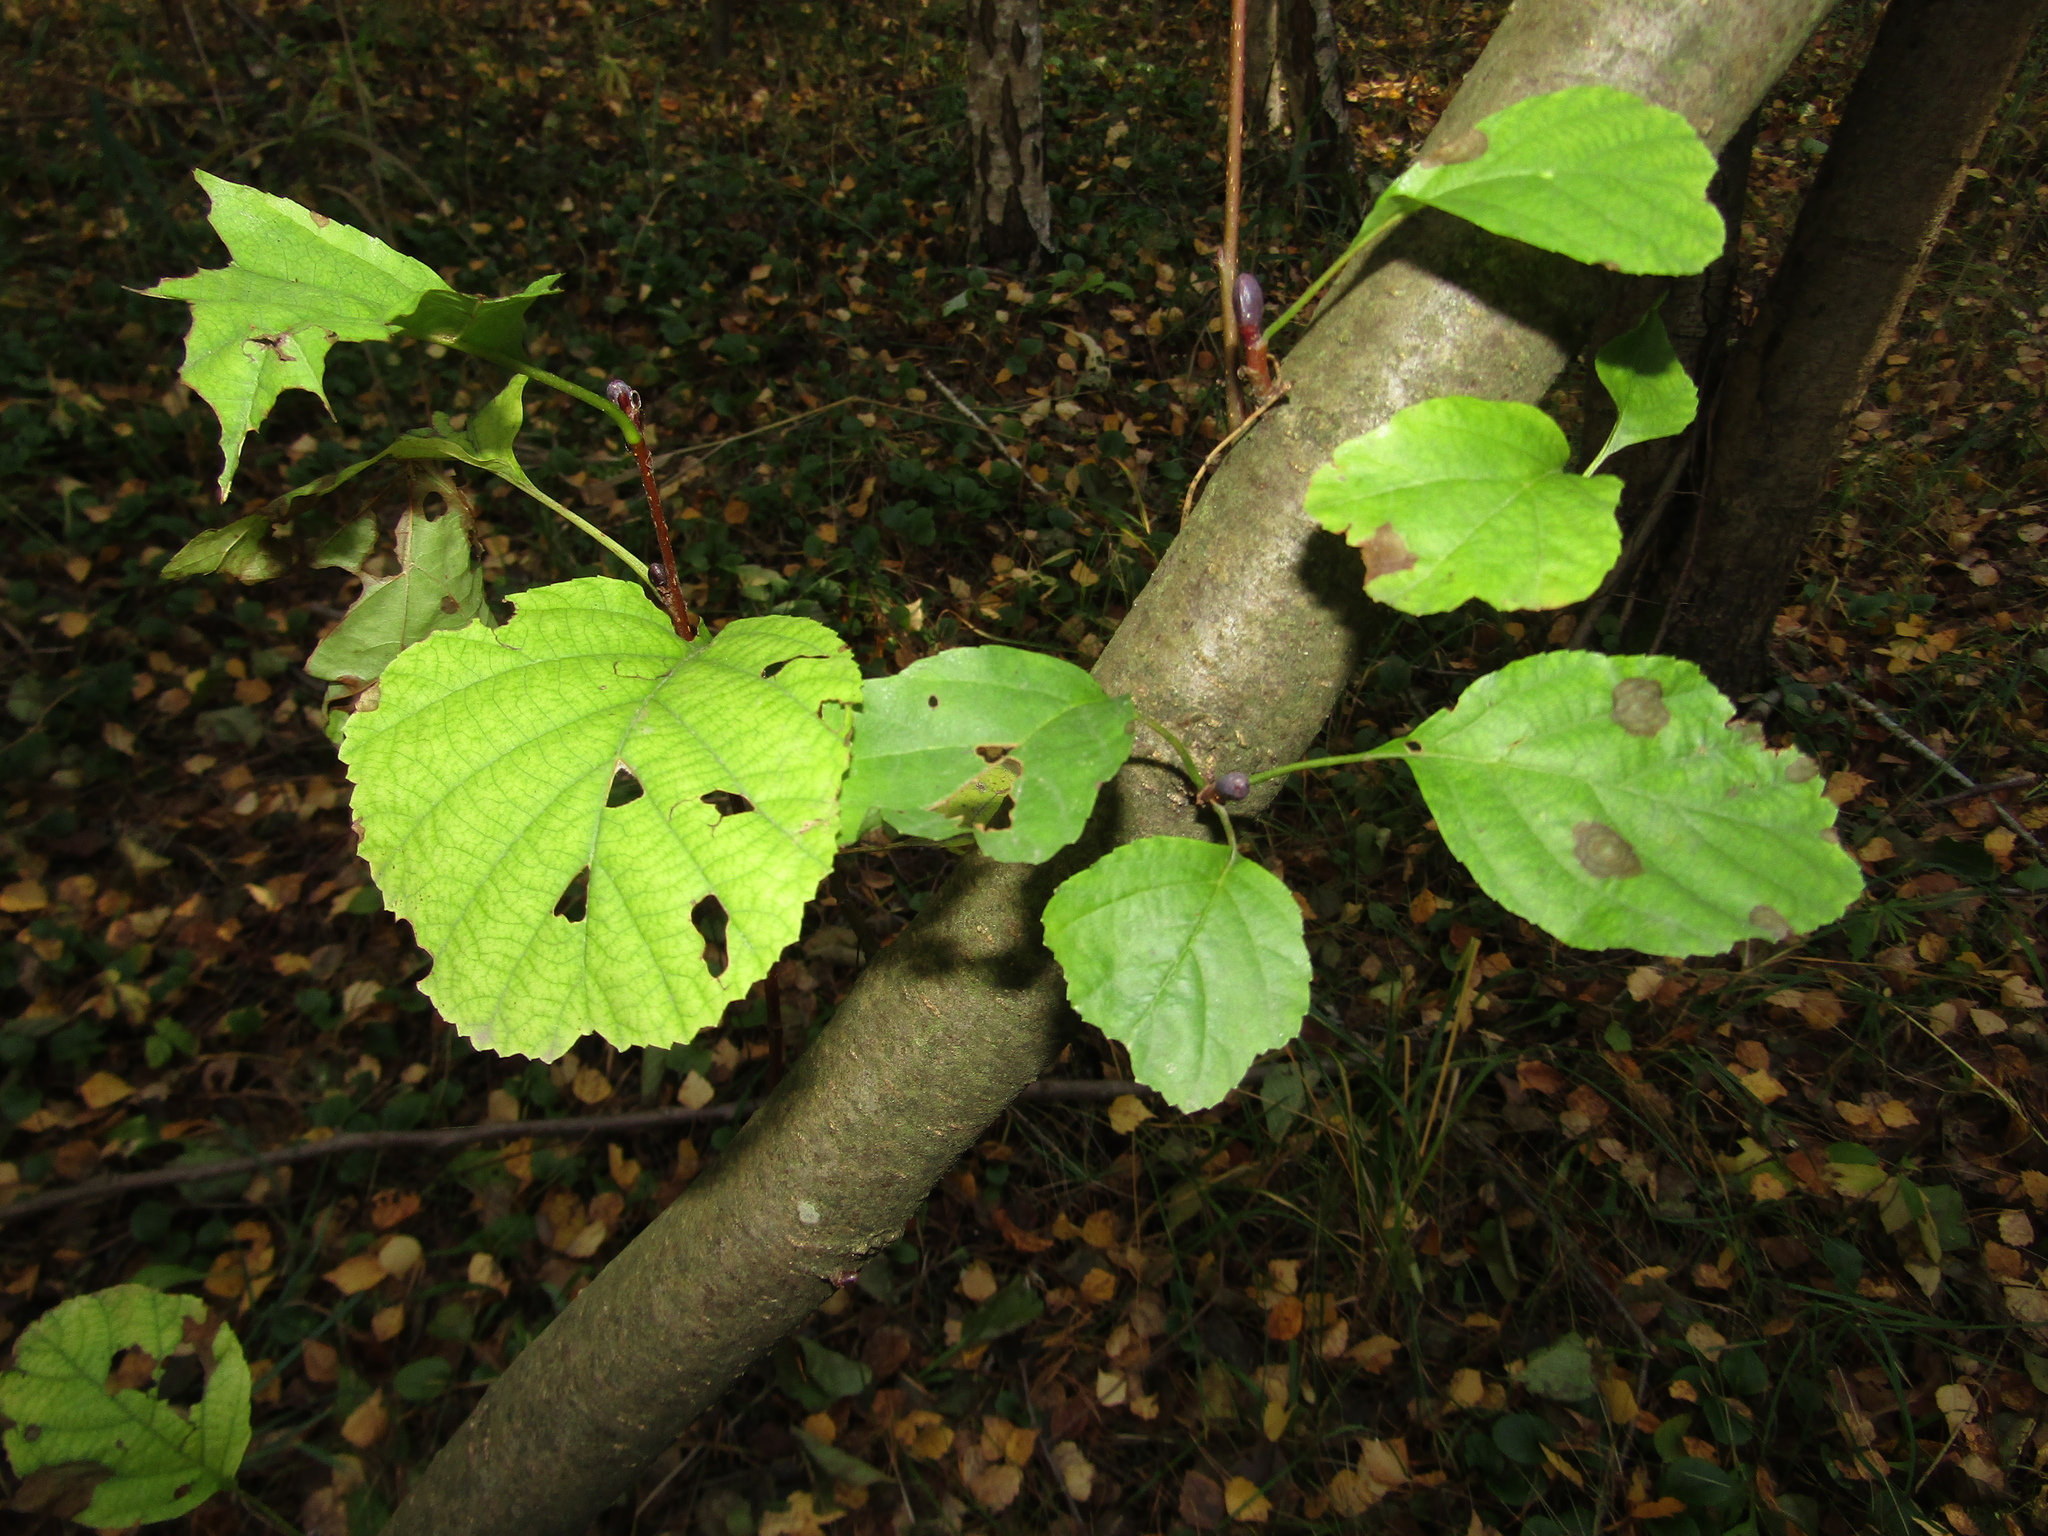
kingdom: Plantae
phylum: Tracheophyta
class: Magnoliopsida
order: Fagales
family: Betulaceae
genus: Alnus
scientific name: Alnus glutinosa
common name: Black alder
